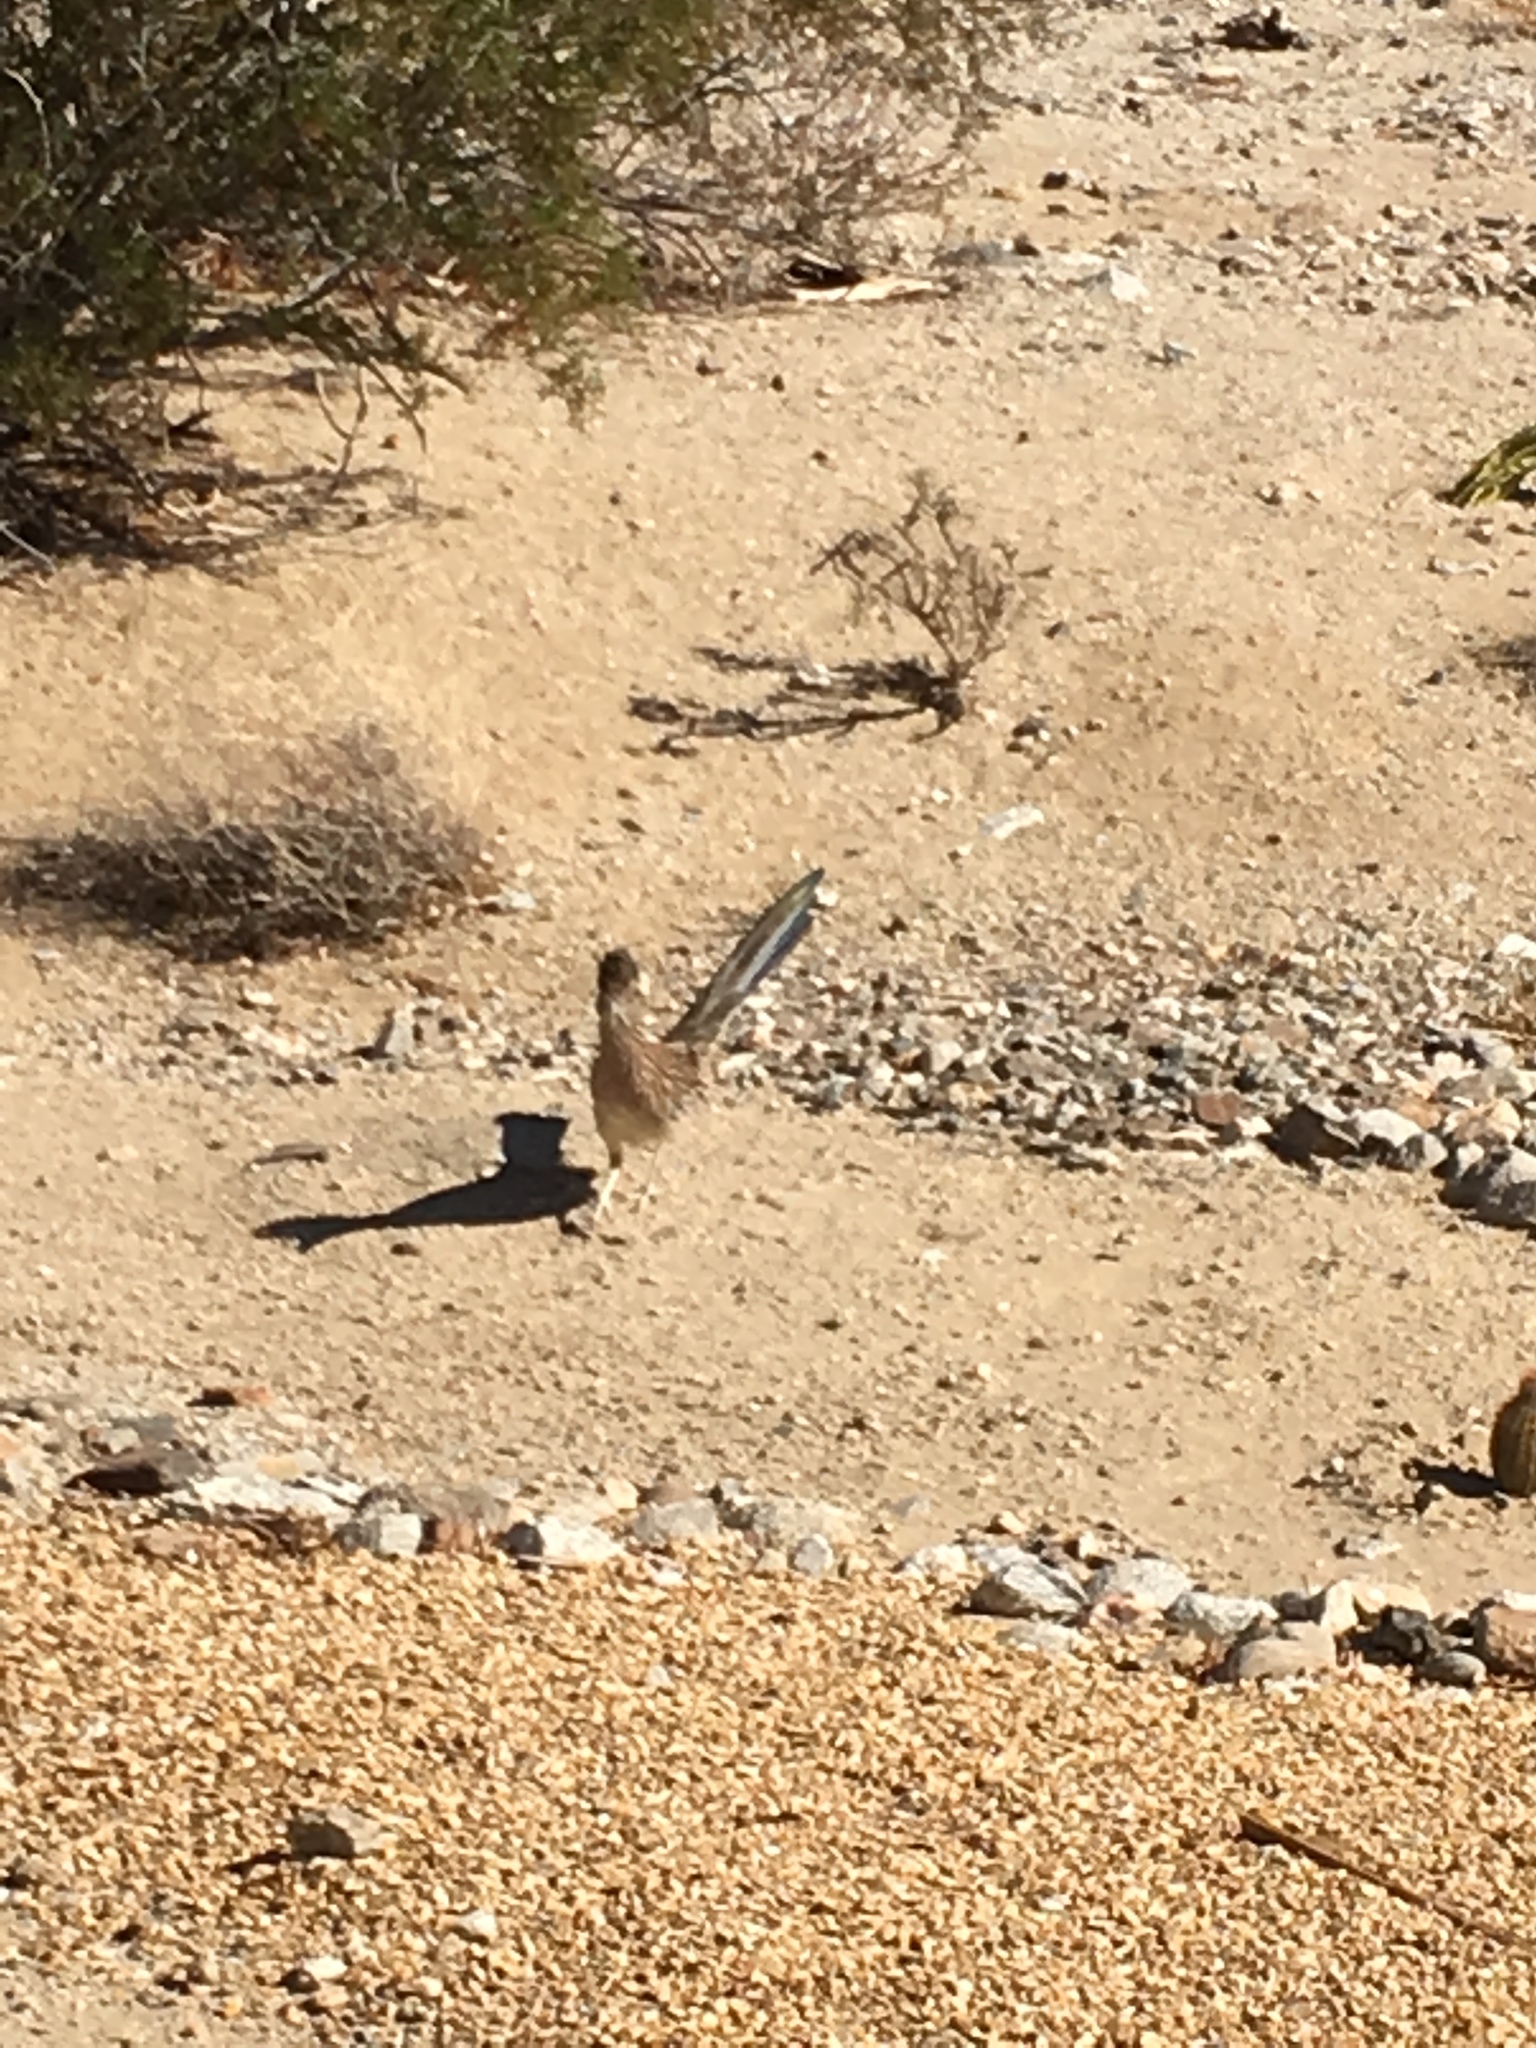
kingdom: Animalia
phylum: Chordata
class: Aves
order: Cuculiformes
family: Cuculidae
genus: Geococcyx
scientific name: Geococcyx californianus
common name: Greater roadrunner
